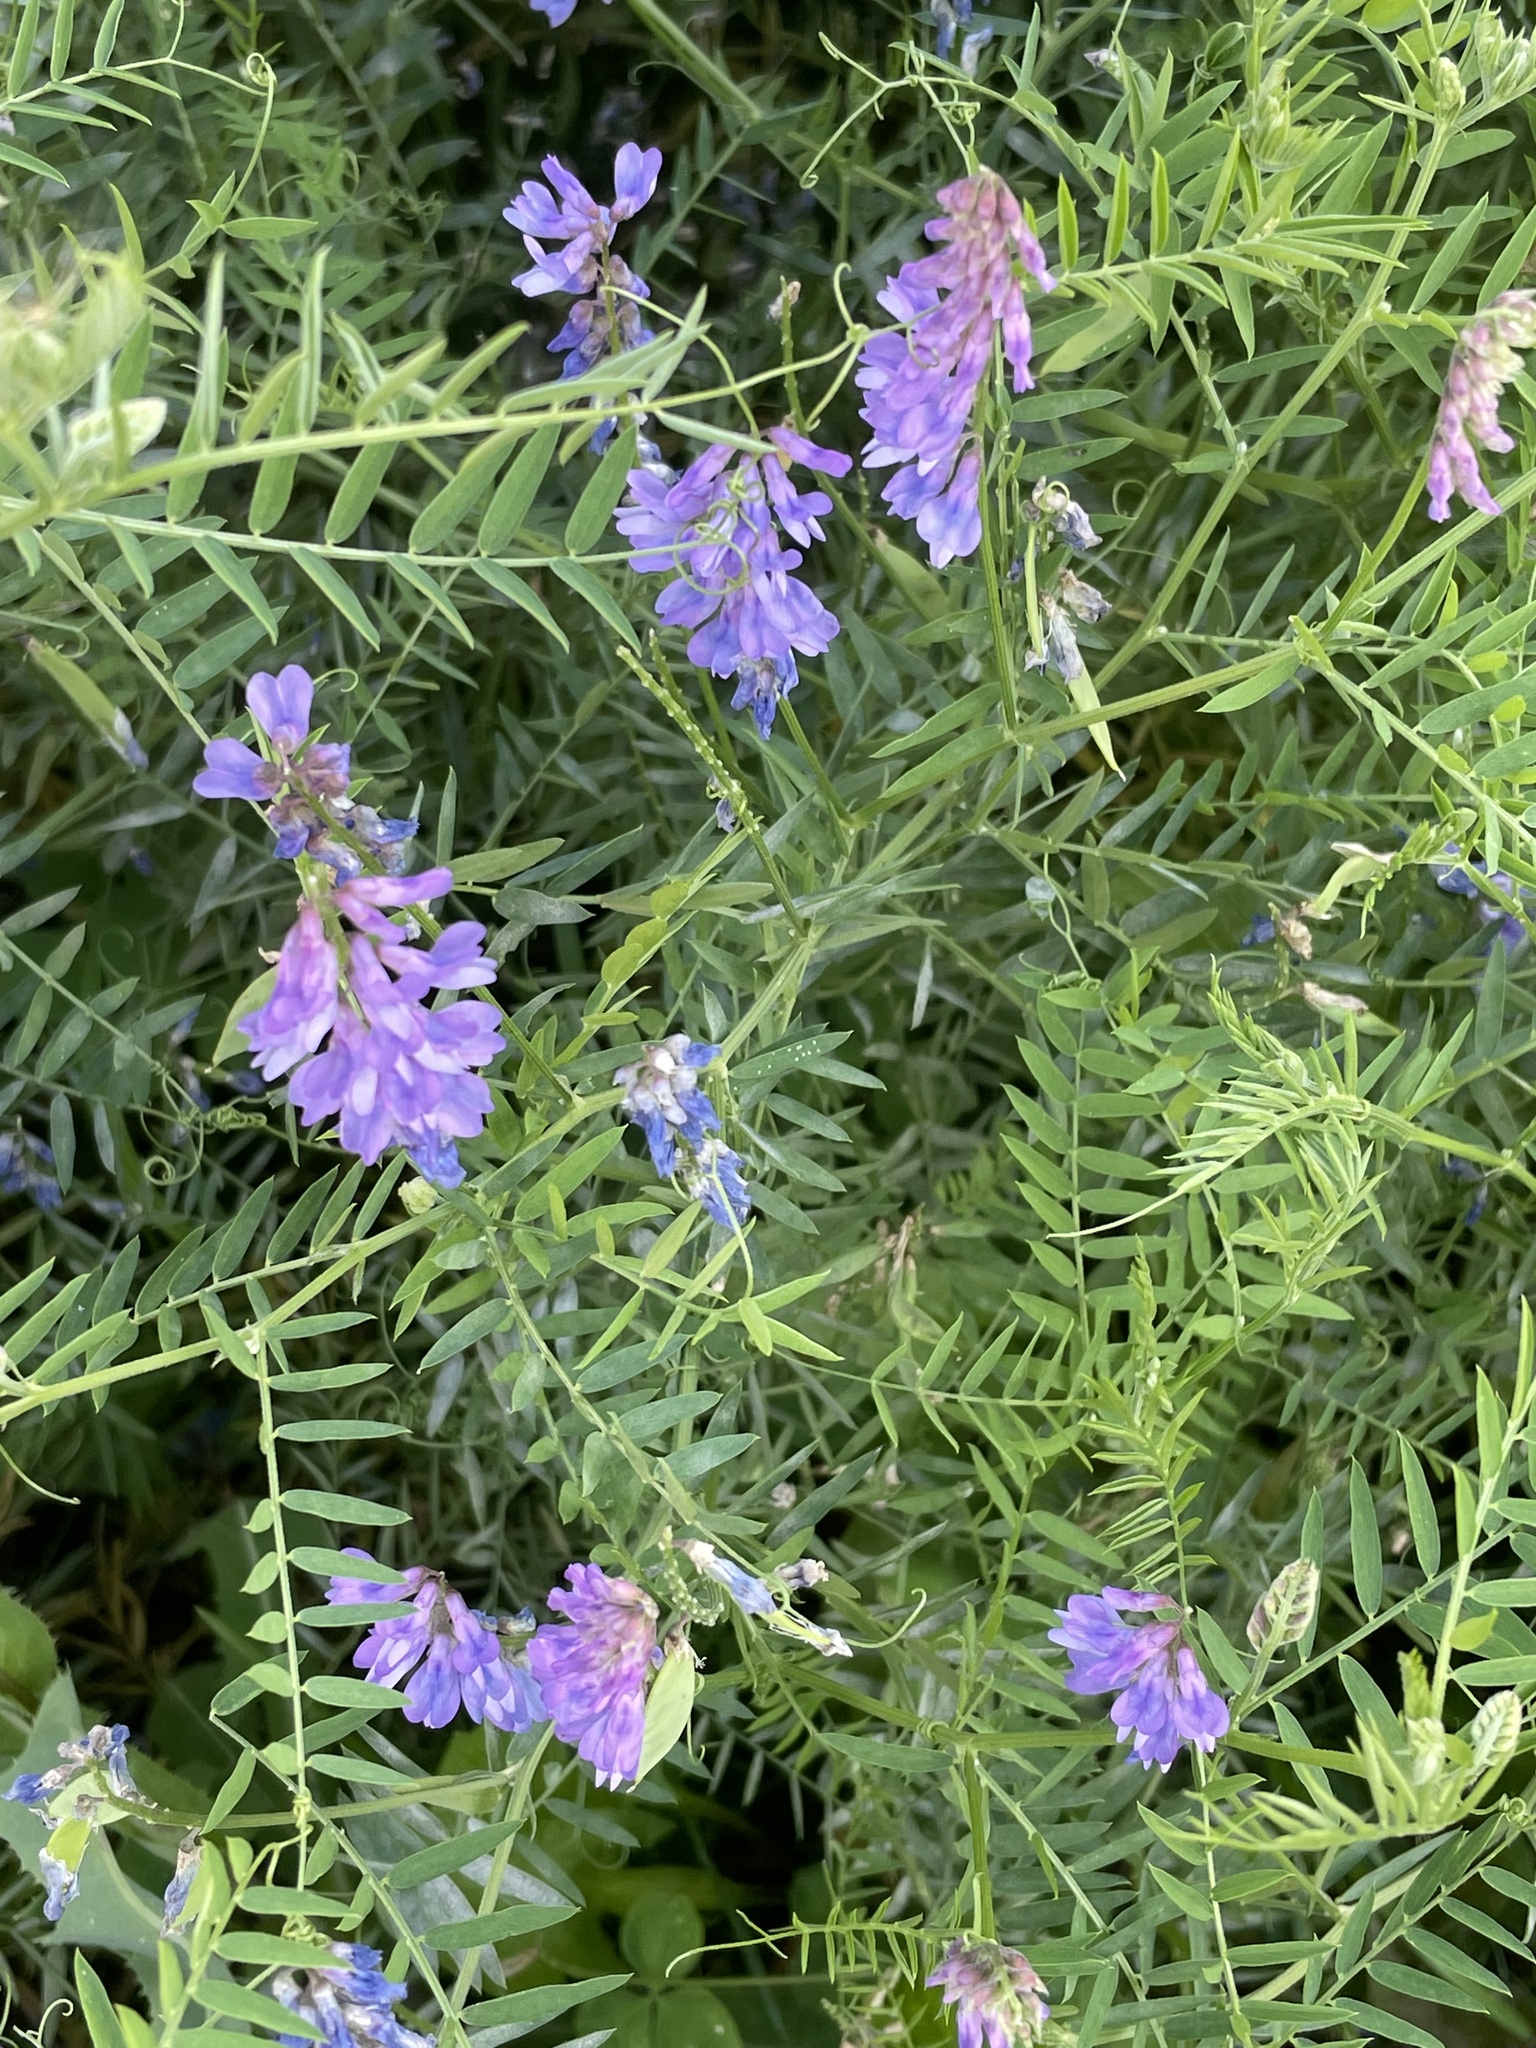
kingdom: Plantae
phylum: Tracheophyta
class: Magnoliopsida
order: Fabales
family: Fabaceae
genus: Vicia
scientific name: Vicia cracca
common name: Bird vetch
